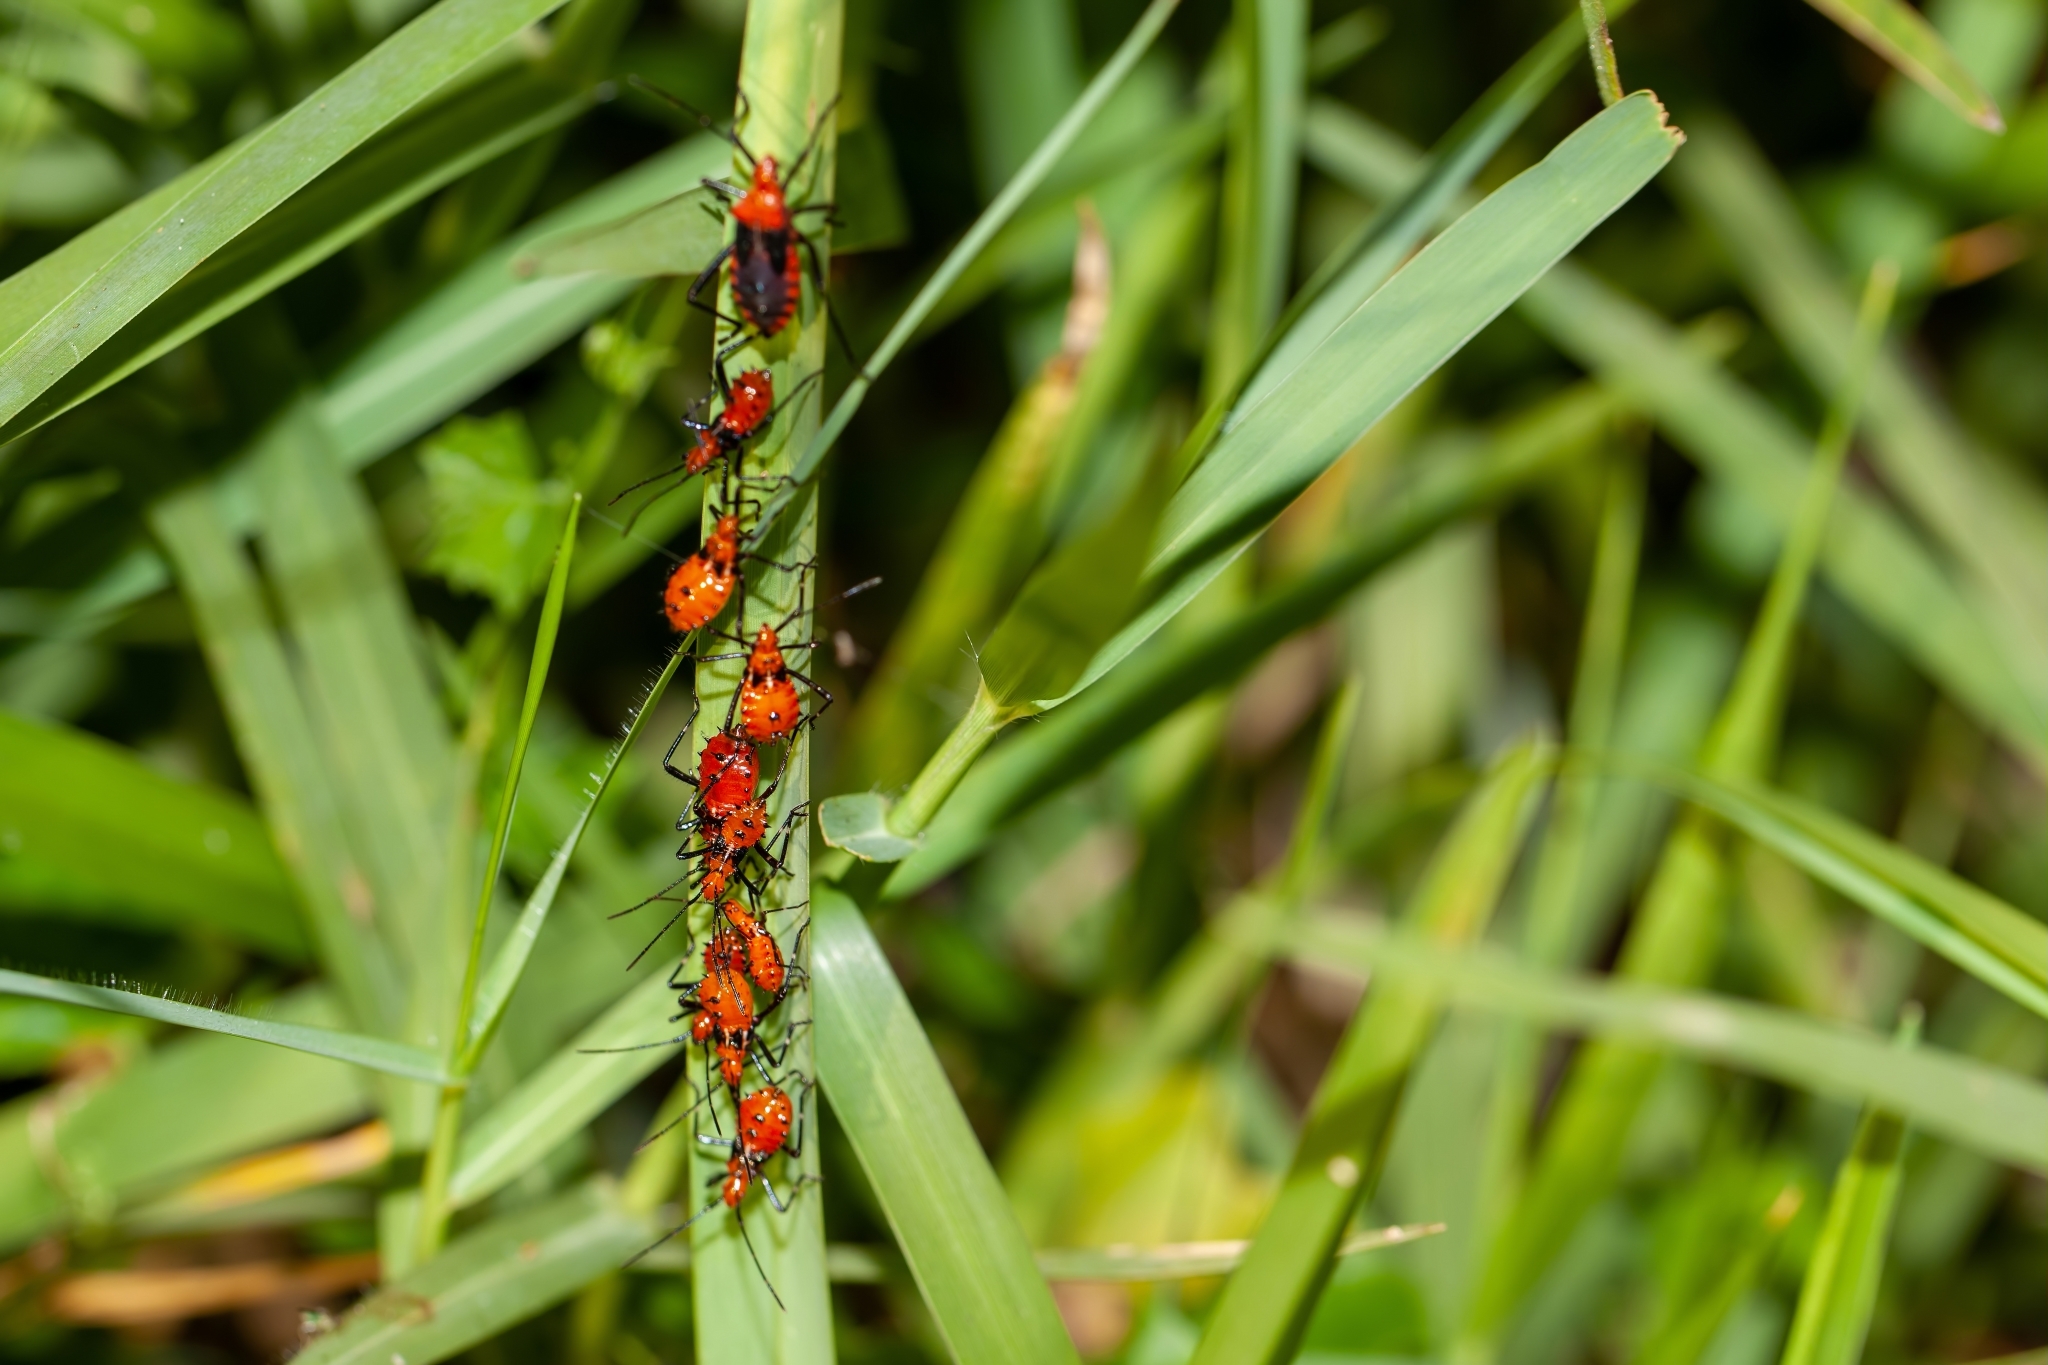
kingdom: Animalia
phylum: Arthropoda
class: Insecta
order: Hemiptera
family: Coreidae
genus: Phthiacnemia
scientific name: Phthiacnemia picta
